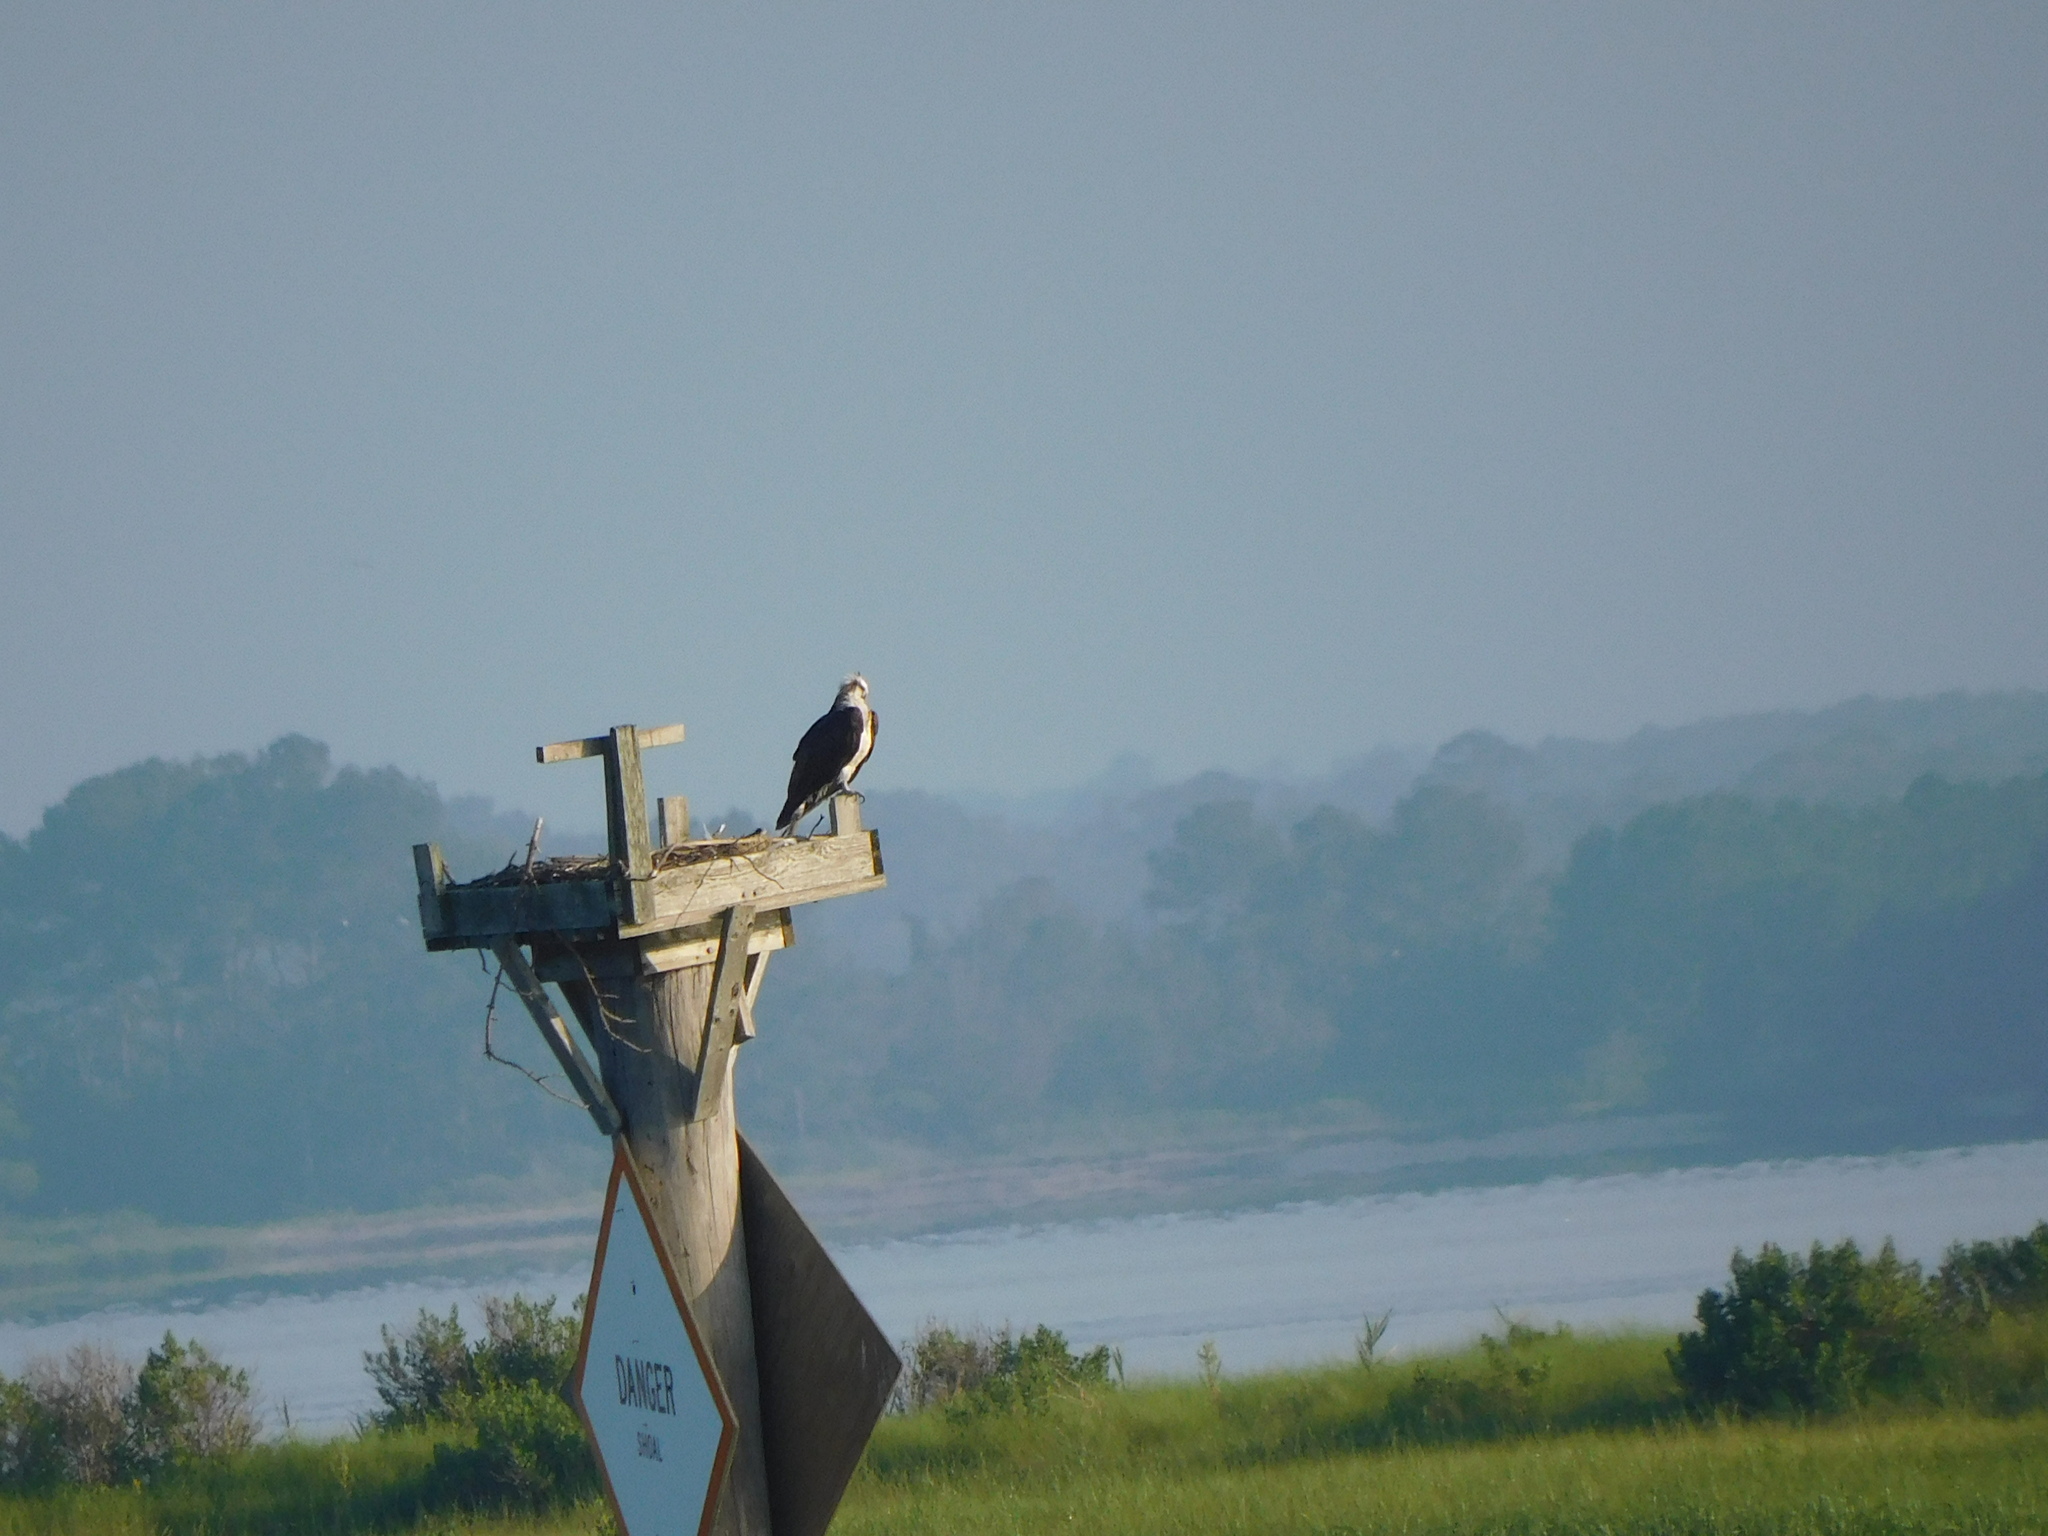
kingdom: Animalia
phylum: Chordata
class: Aves
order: Accipitriformes
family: Pandionidae
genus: Pandion
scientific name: Pandion haliaetus
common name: Osprey
